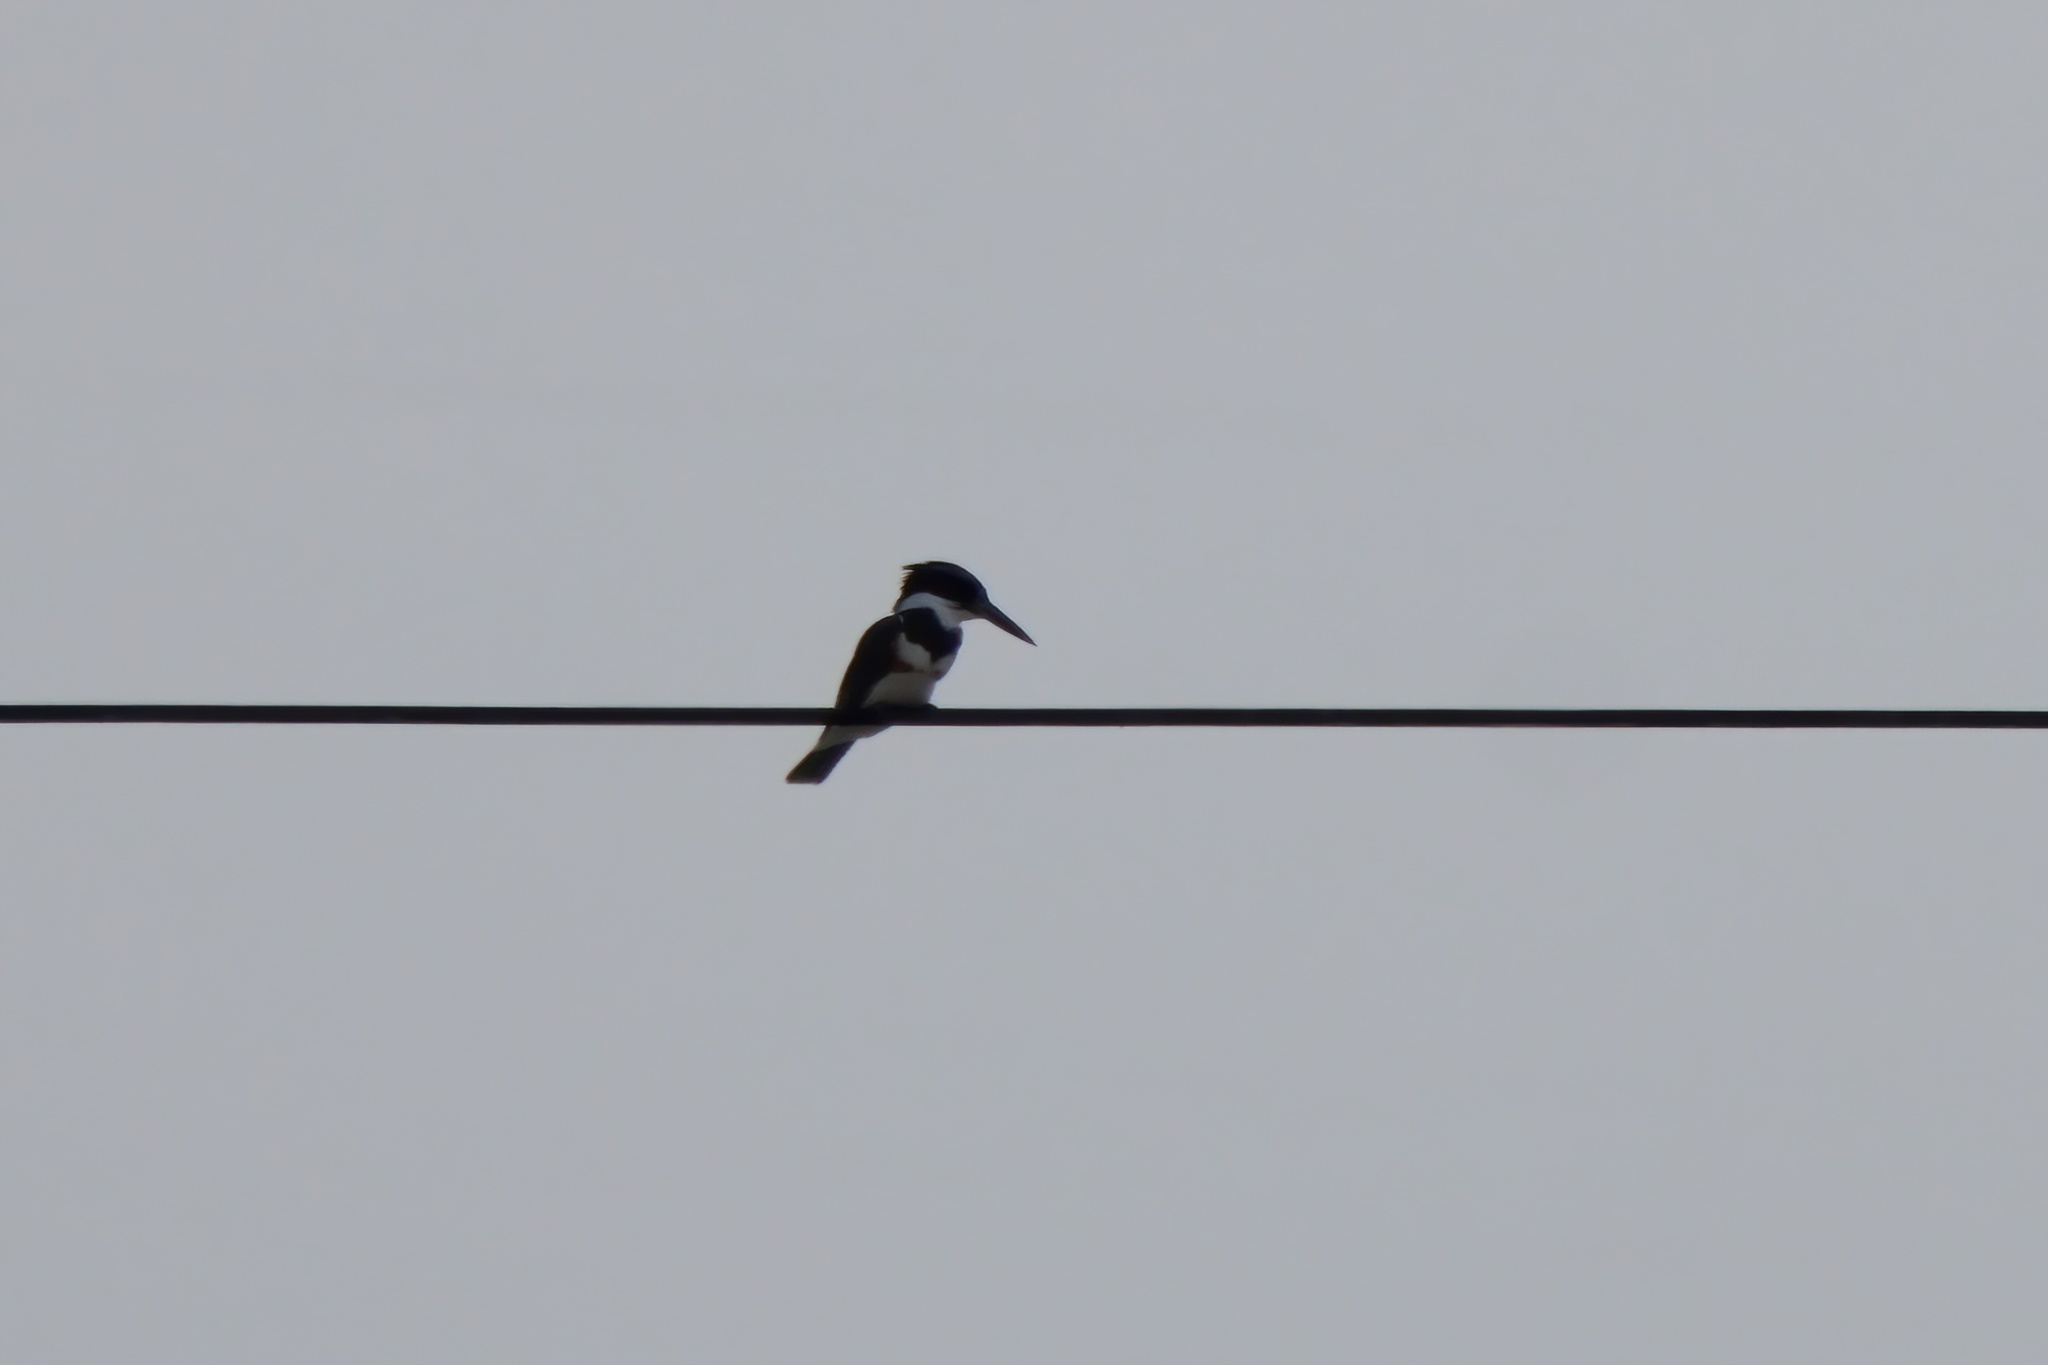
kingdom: Animalia
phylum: Chordata
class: Aves
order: Coraciiformes
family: Alcedinidae
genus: Megaceryle
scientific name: Megaceryle alcyon
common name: Belted kingfisher
